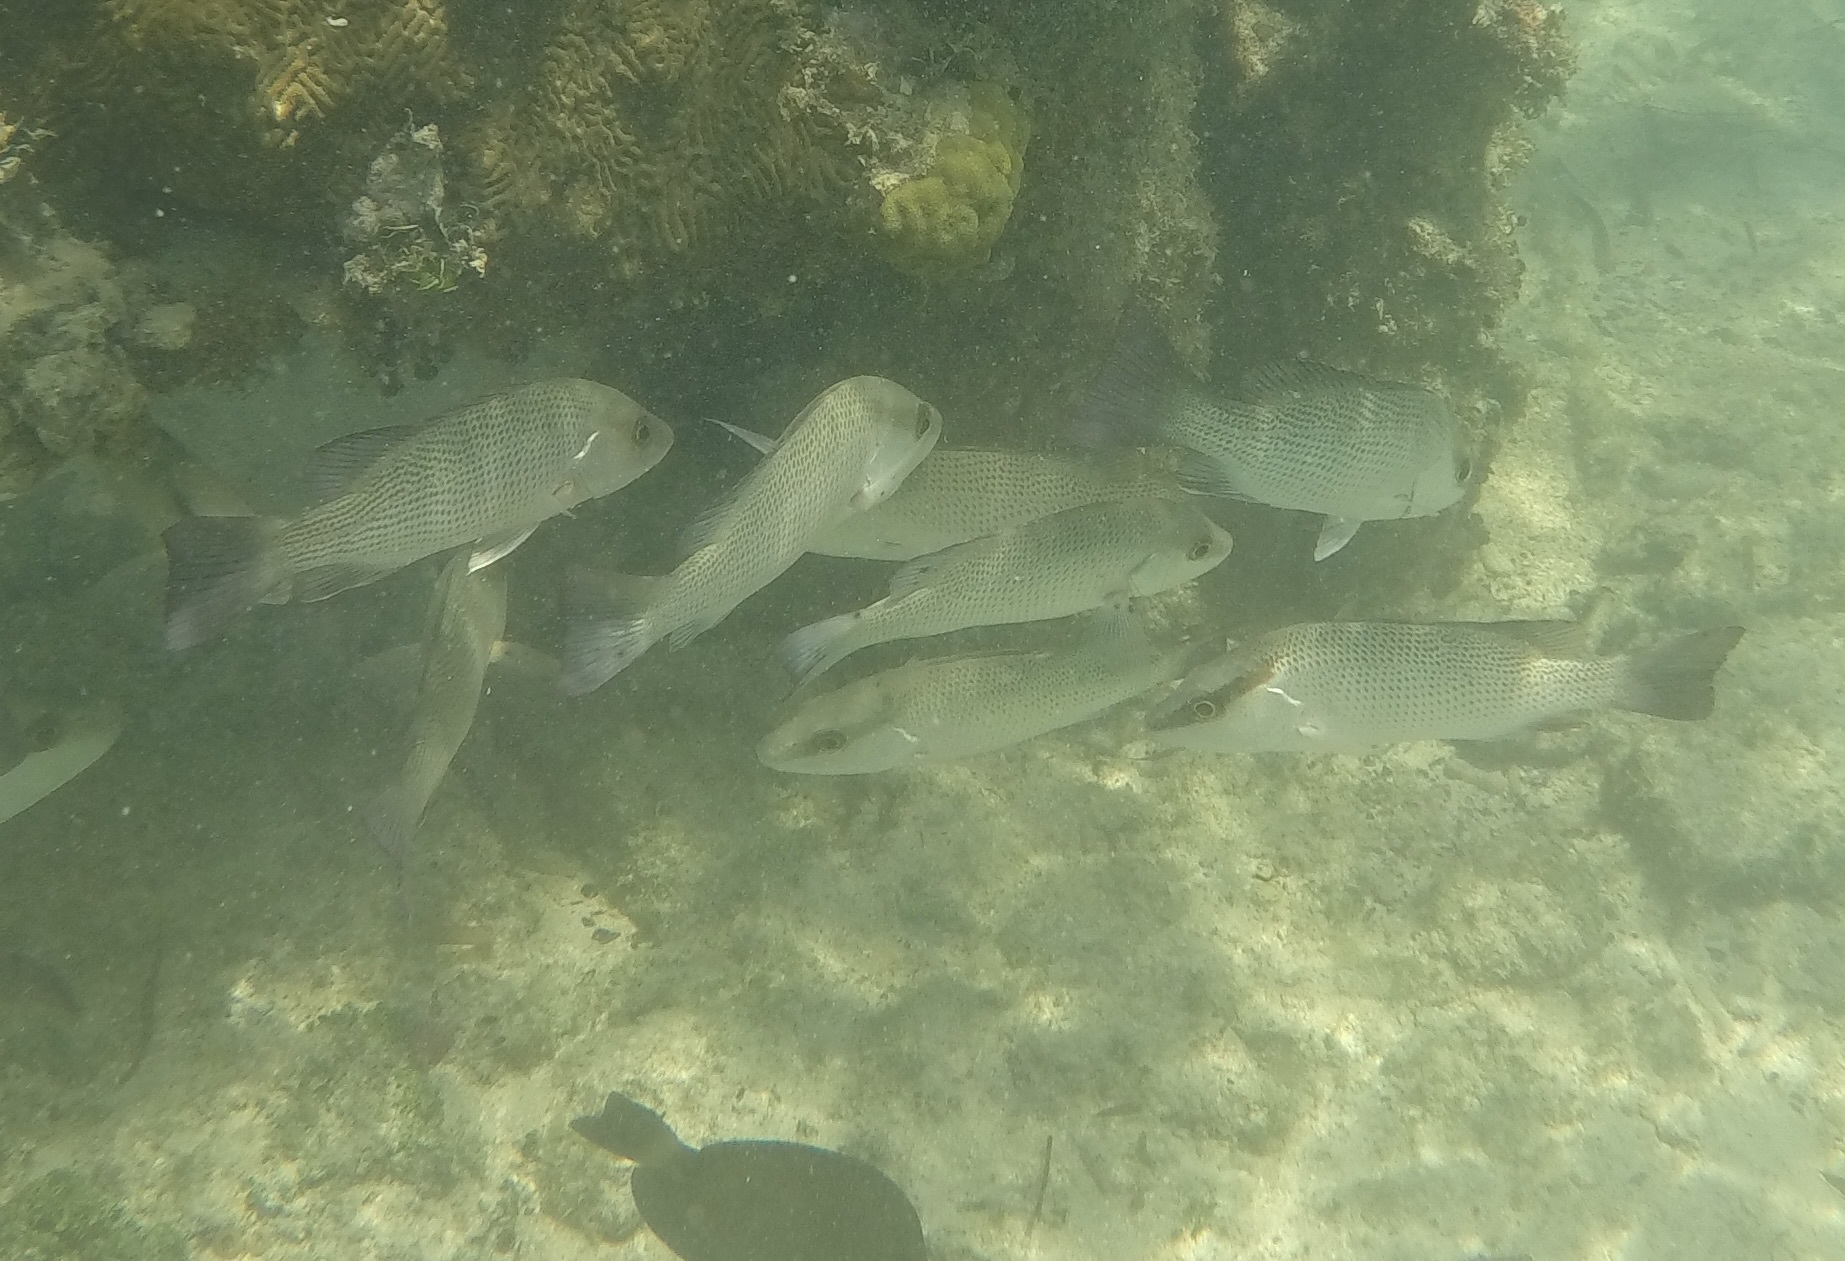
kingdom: Animalia
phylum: Chordata
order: Perciformes
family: Lutjanidae
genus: Lutjanus
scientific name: Lutjanus griseus
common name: Gray snapper
